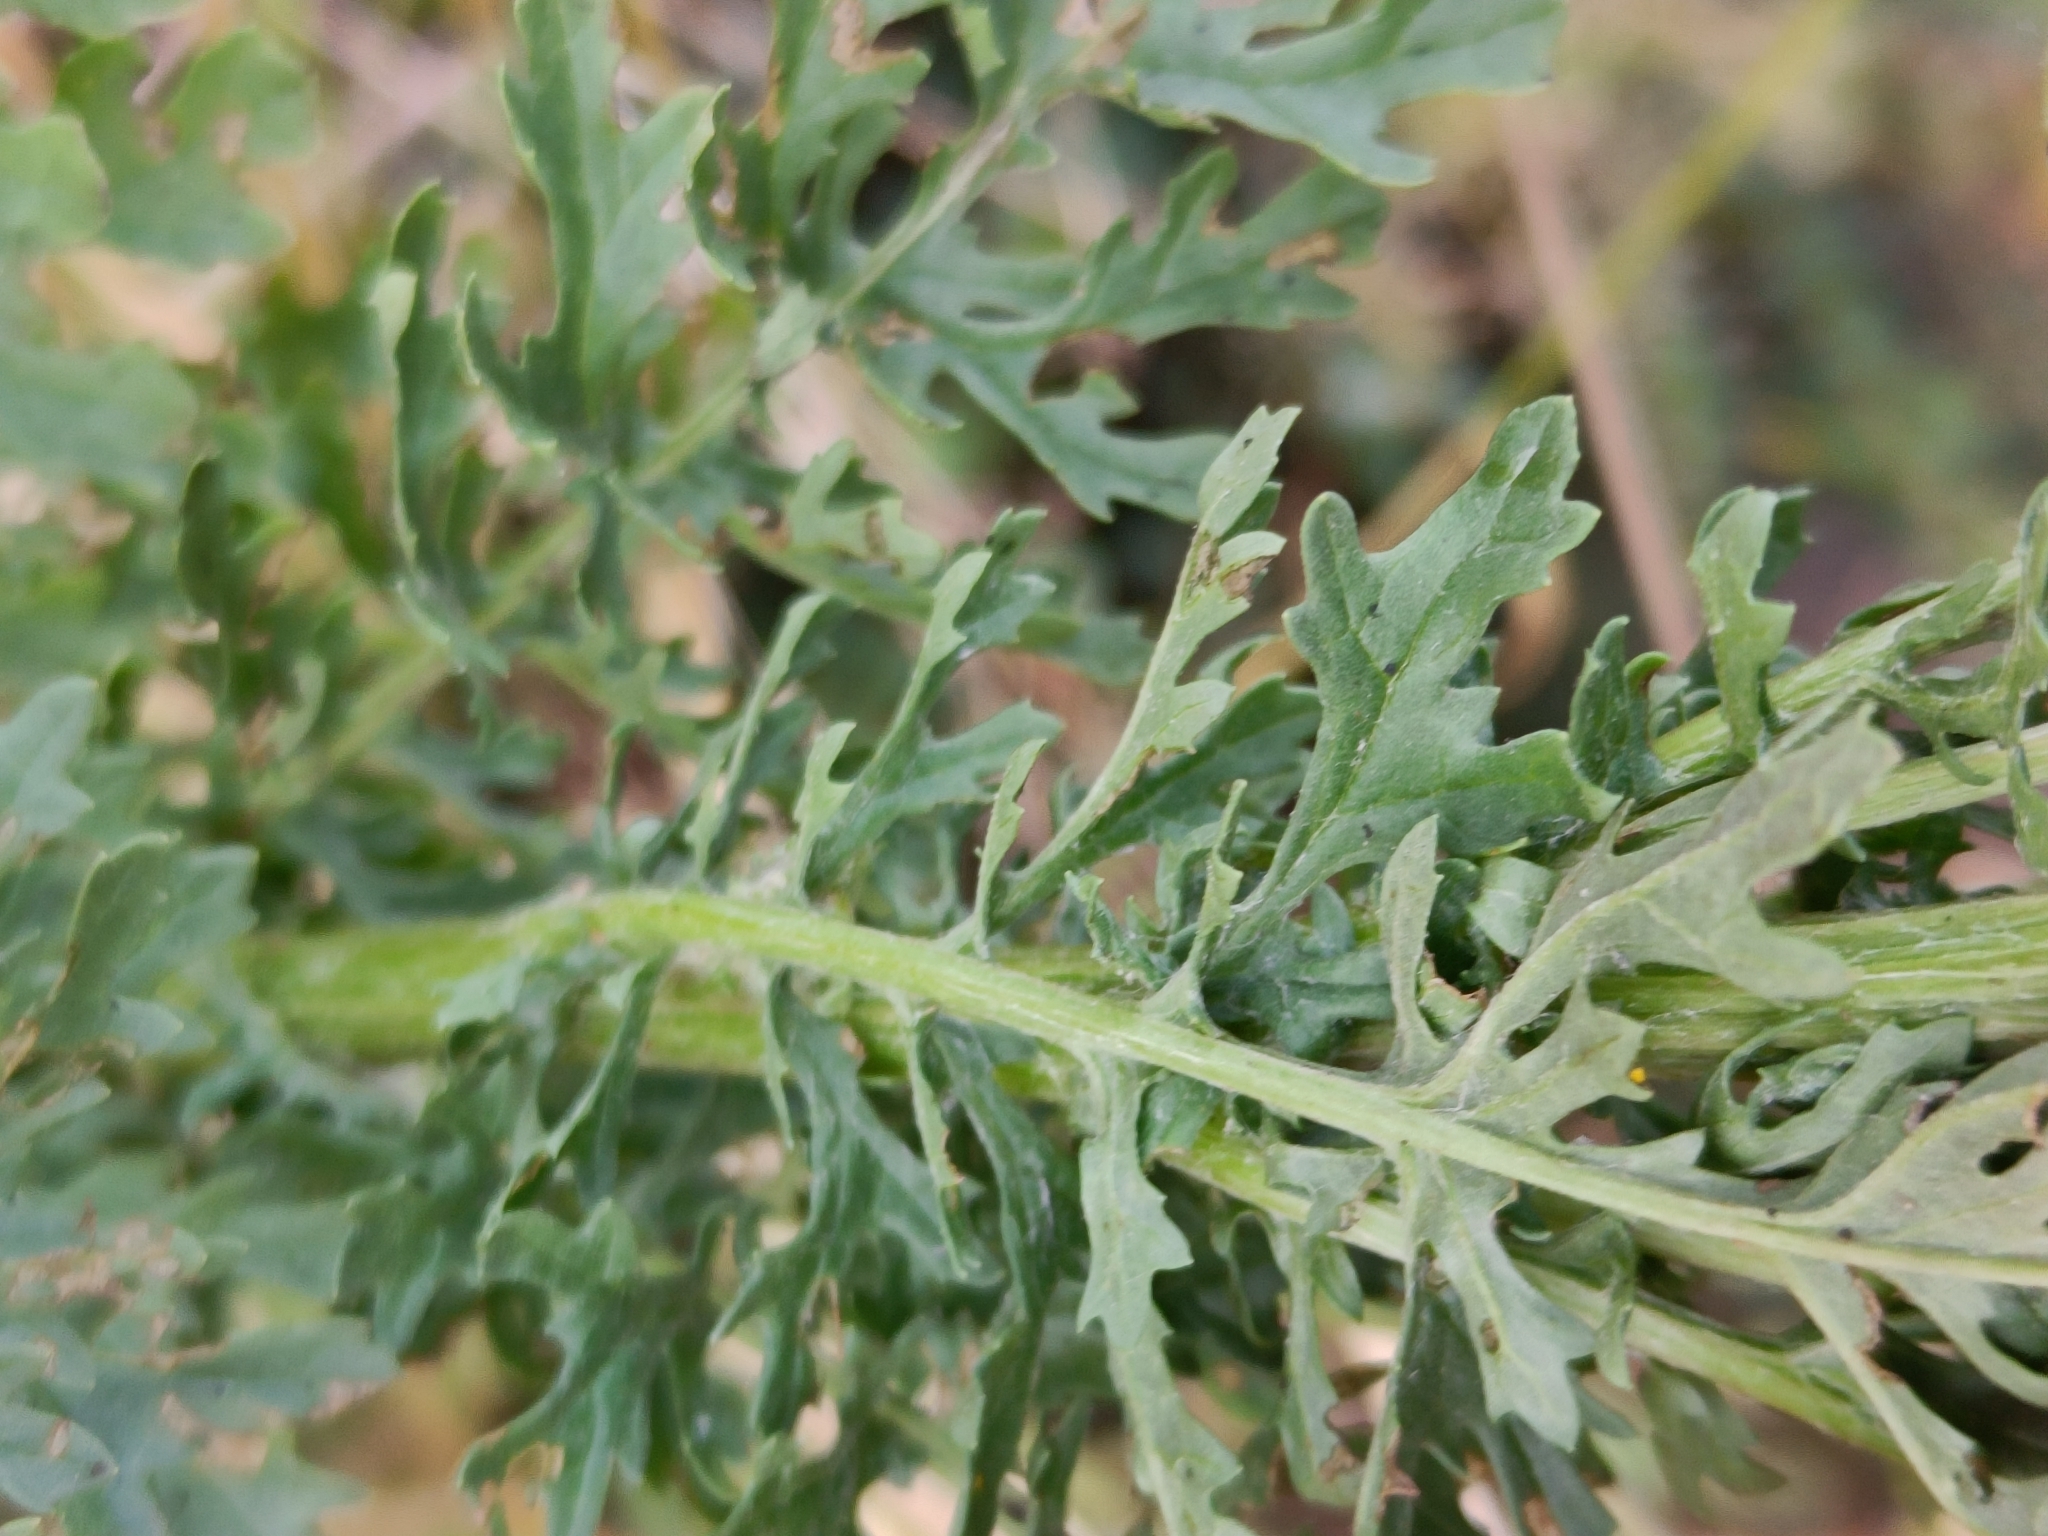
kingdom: Plantae
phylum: Tracheophyta
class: Magnoliopsida
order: Asterales
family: Asteraceae
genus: Jacobaea
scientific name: Jacobaea vulgaris
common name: Stinking willie
